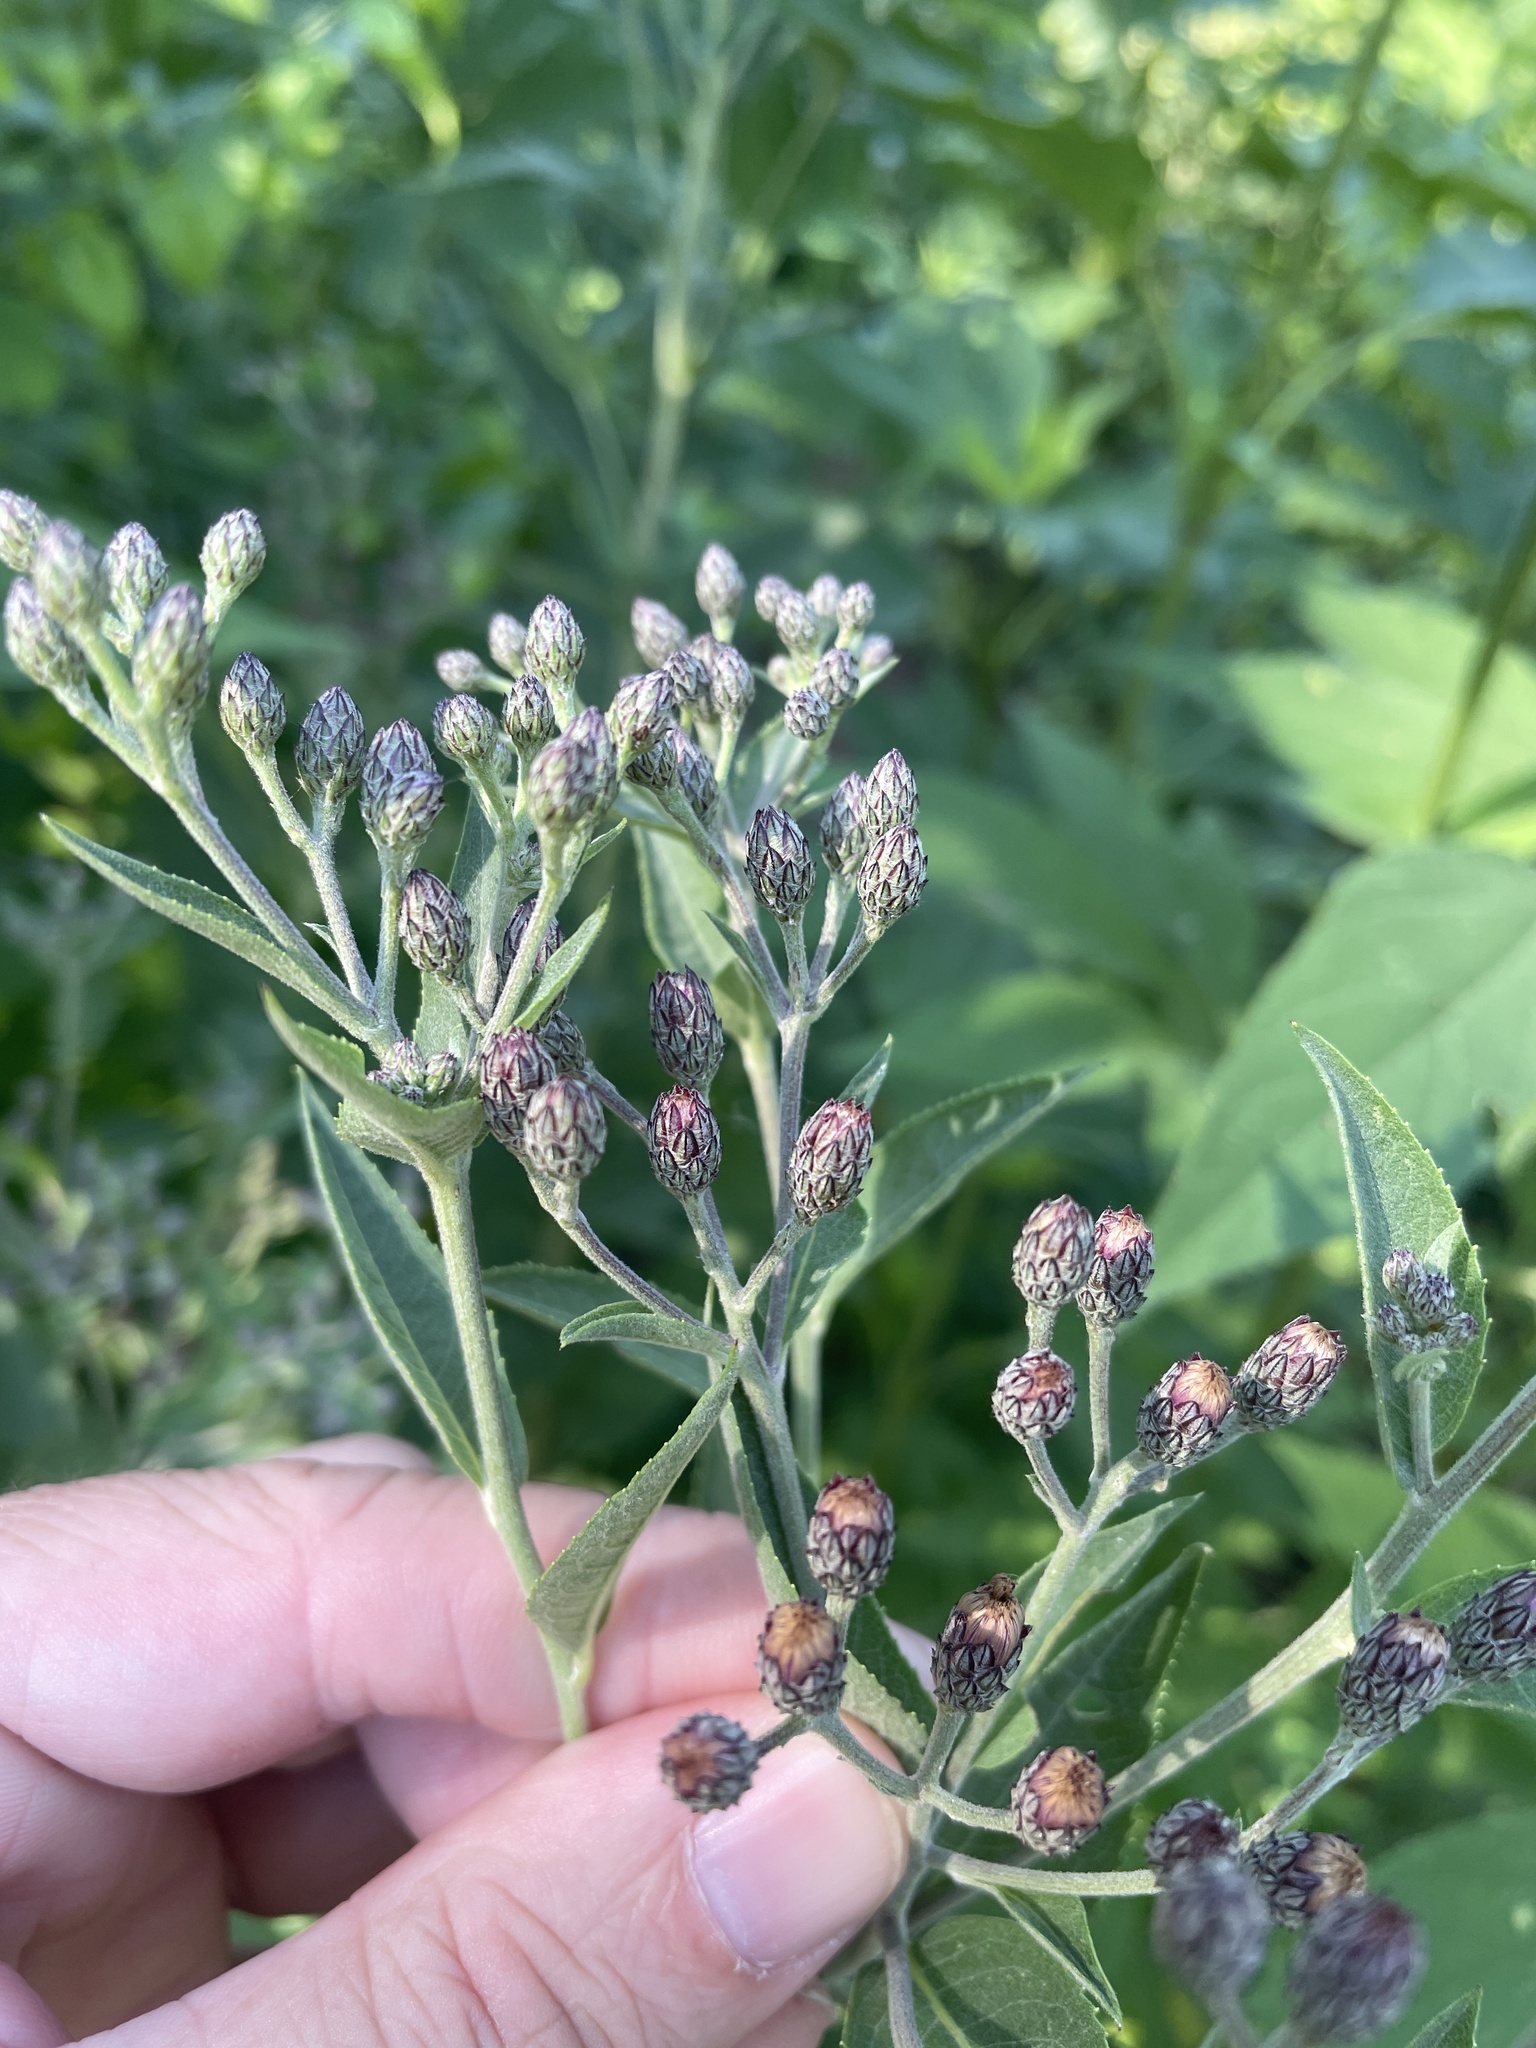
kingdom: Plantae
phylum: Tracheophyta
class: Magnoliopsida
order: Asterales
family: Asteraceae
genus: Vernonia
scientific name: Vernonia baldwinii
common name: Western ironweed
